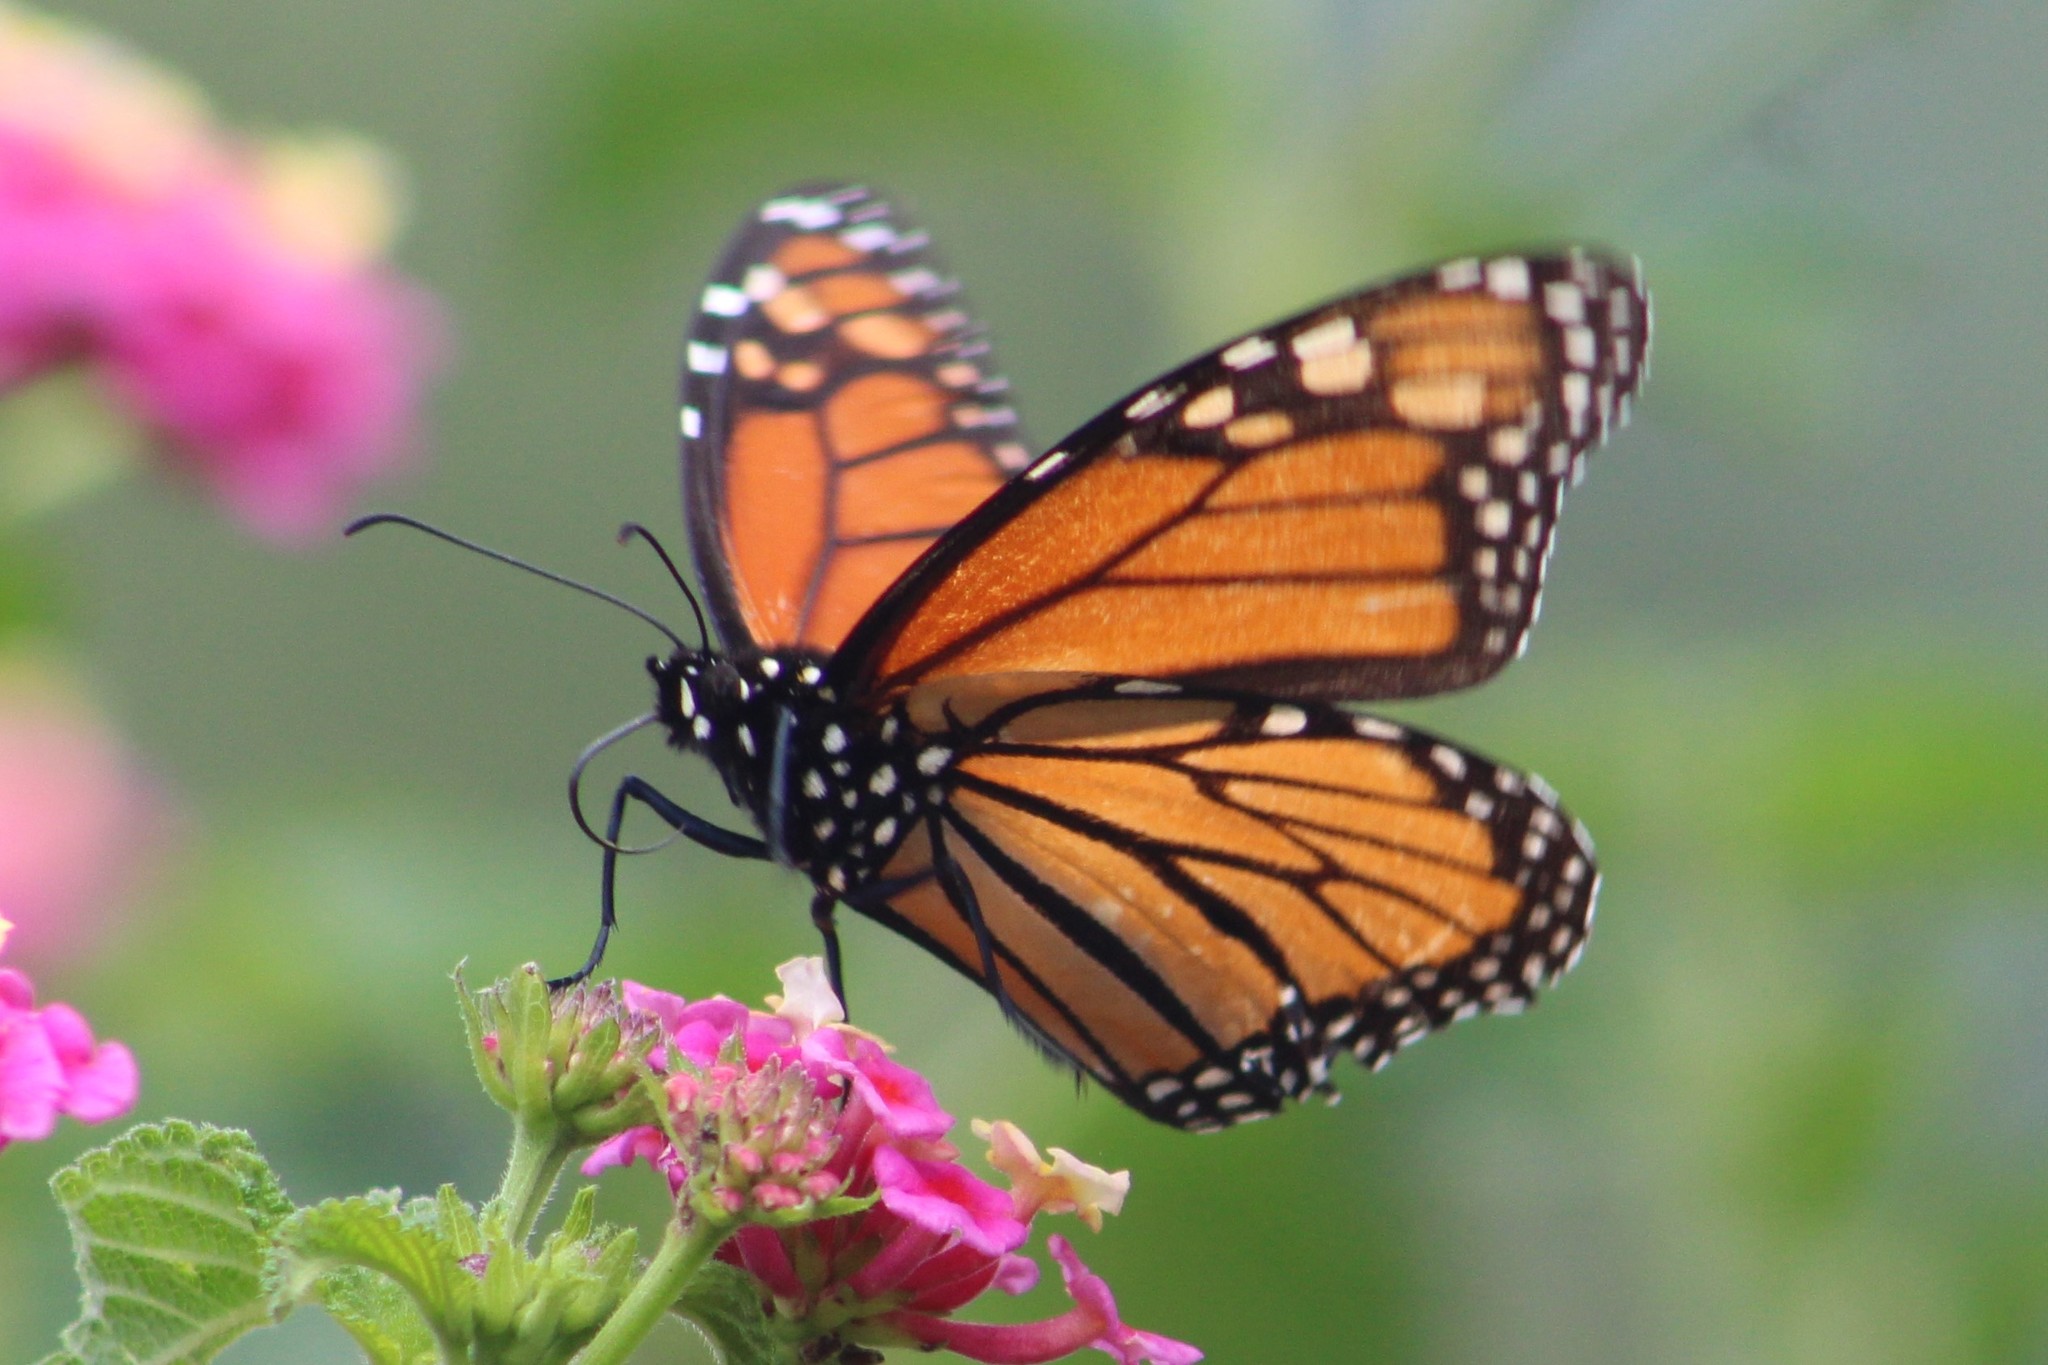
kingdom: Animalia
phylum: Arthropoda
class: Insecta
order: Lepidoptera
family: Nymphalidae
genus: Danaus
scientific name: Danaus plexippus
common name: Monarch
